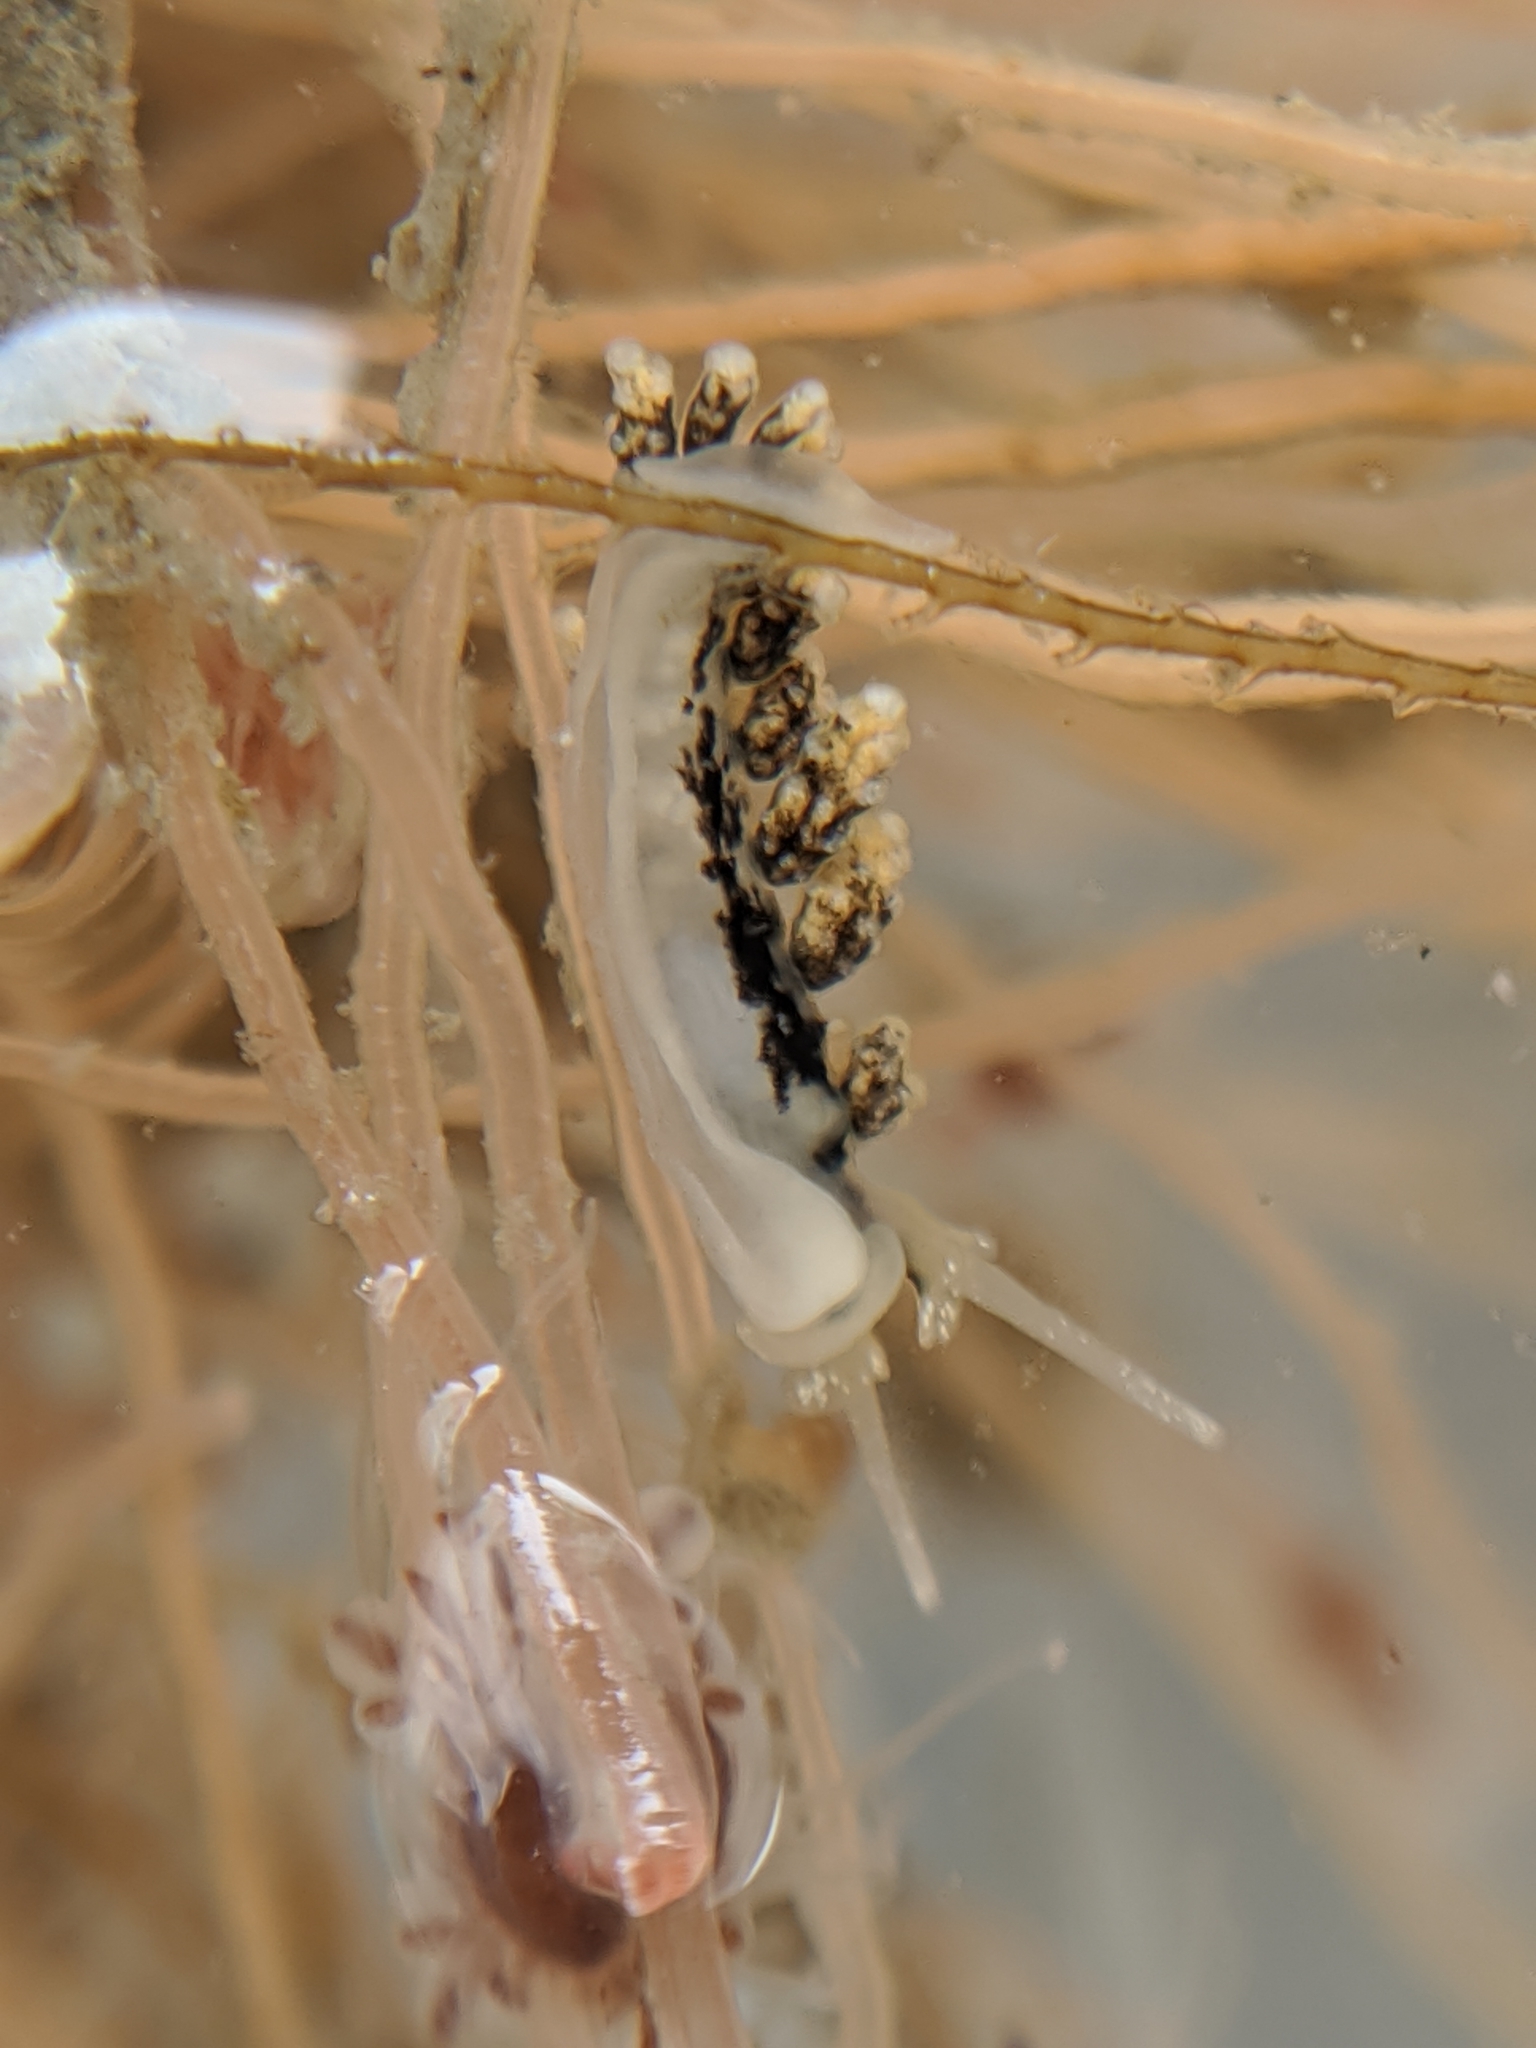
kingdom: Animalia
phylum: Mollusca
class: Gastropoda
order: Nudibranchia
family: Dotidae
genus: Doto
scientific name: Doto kya
